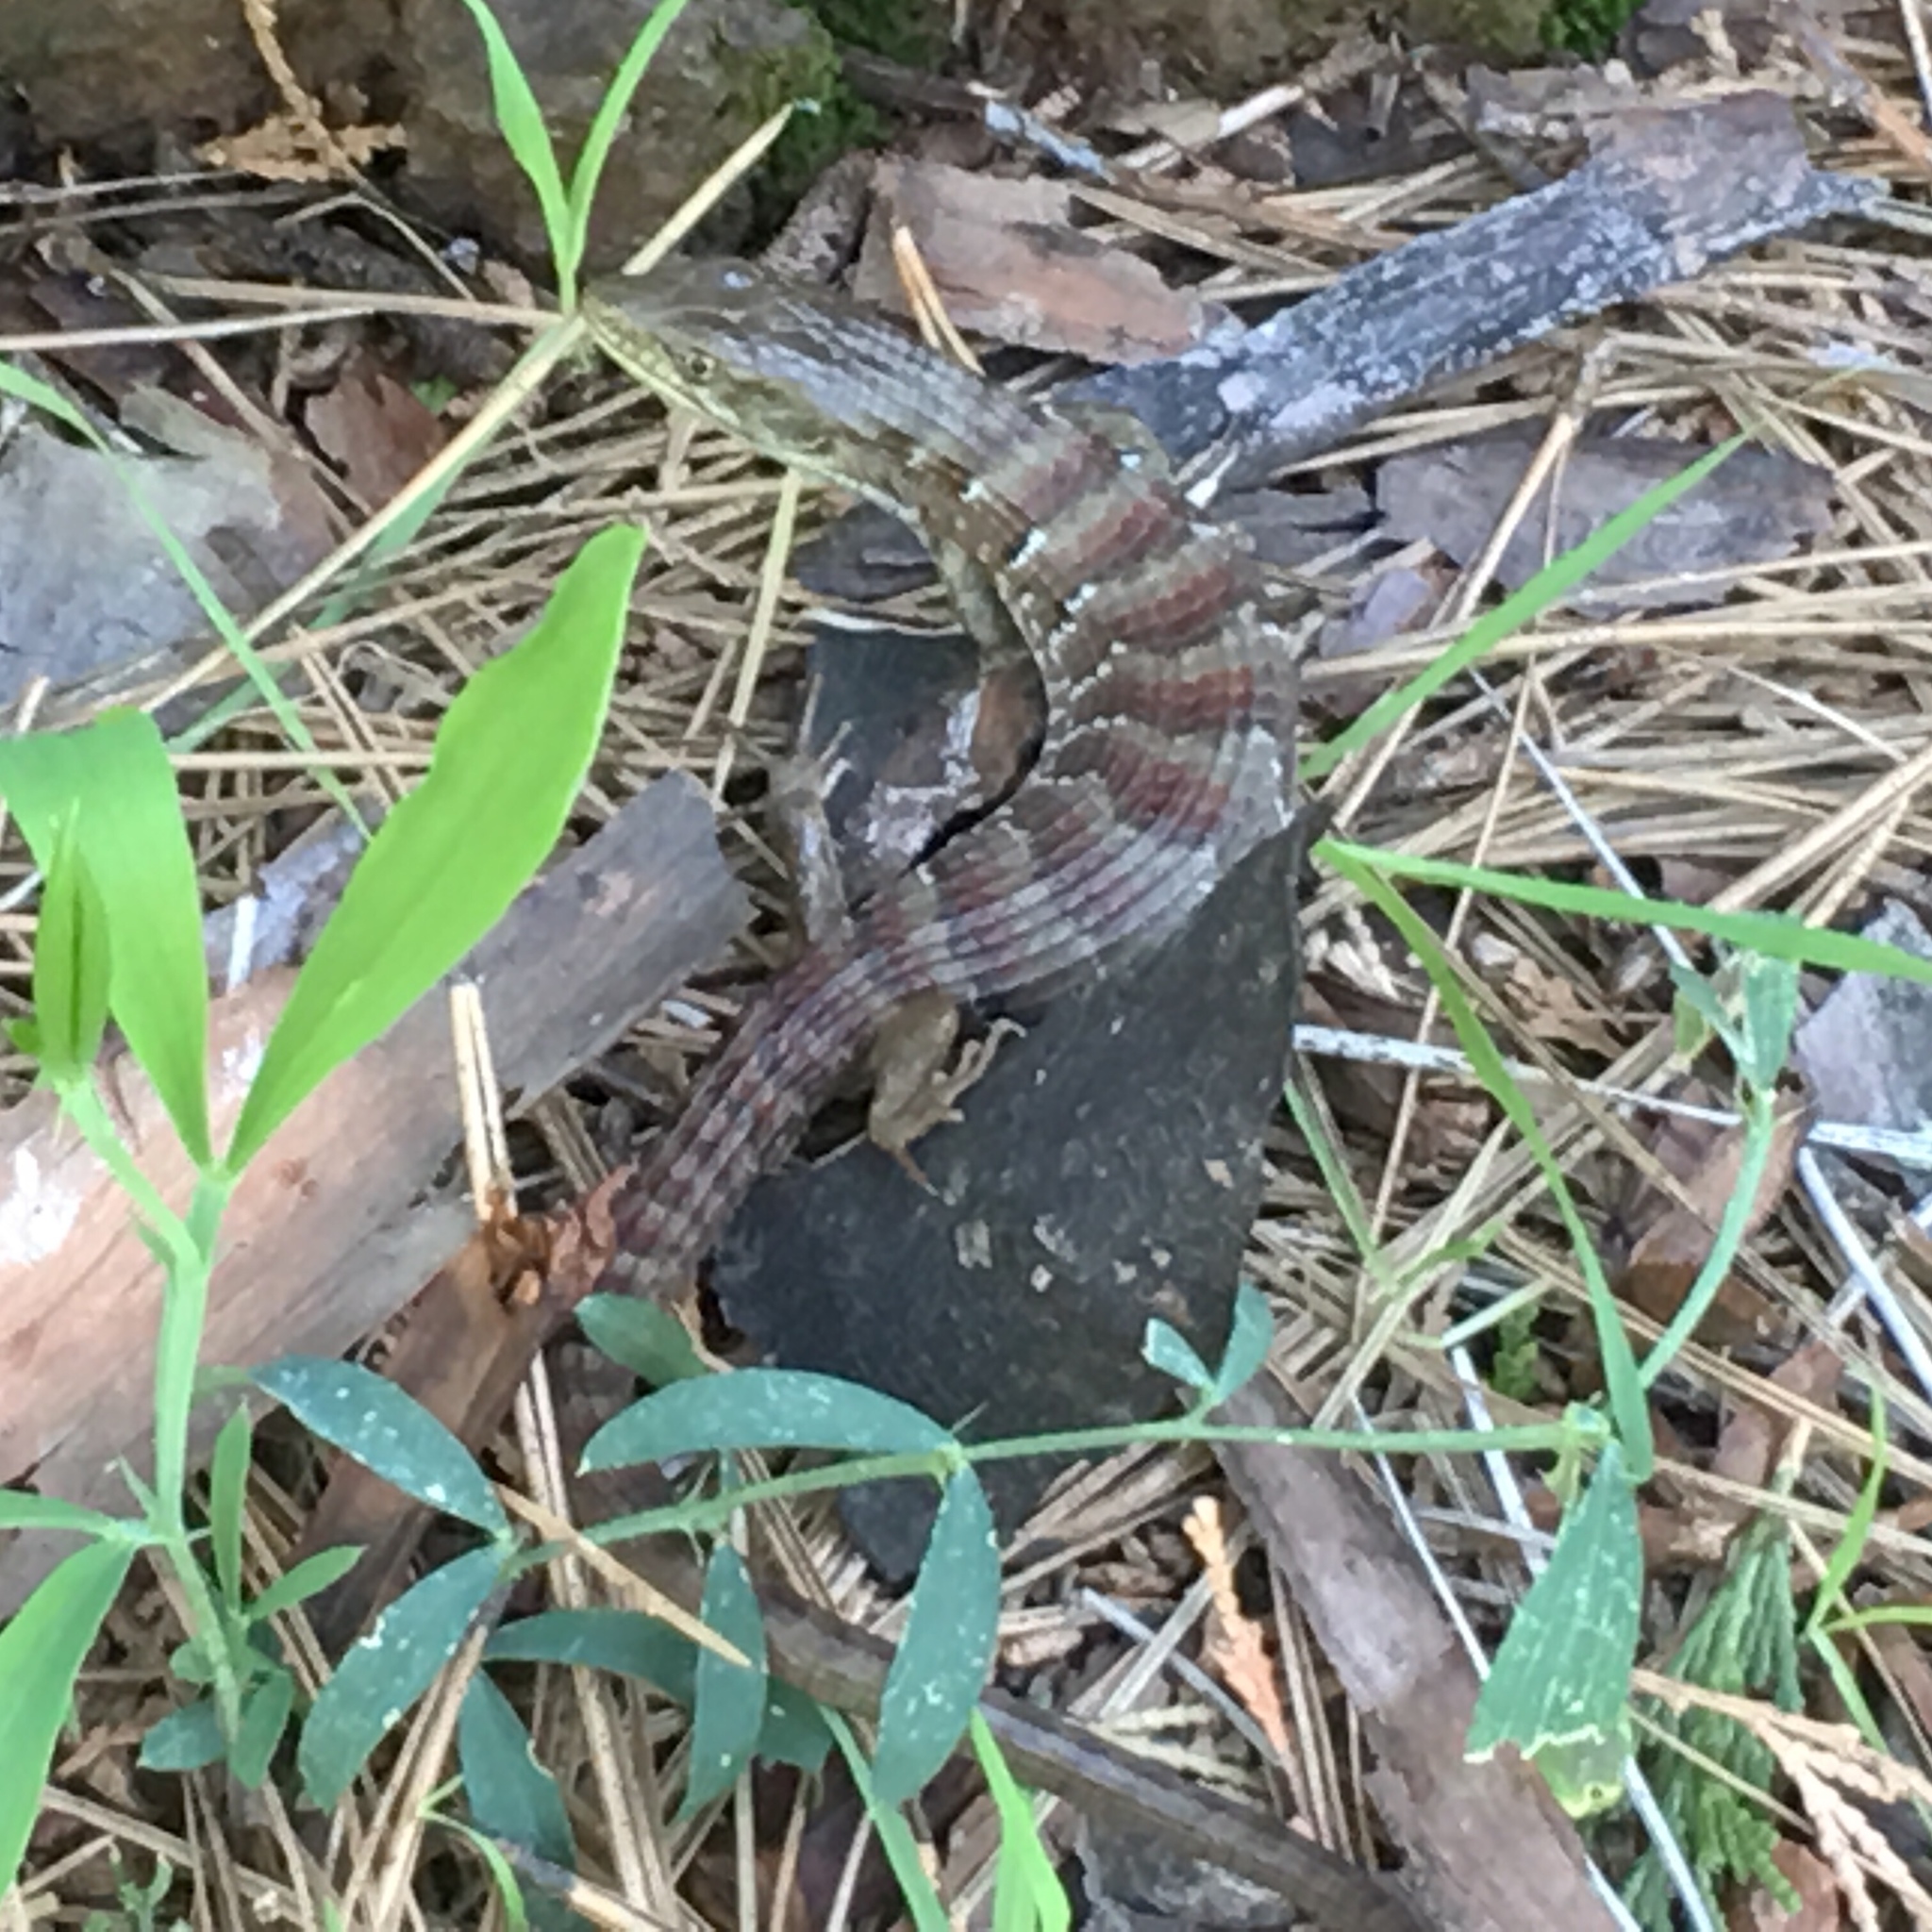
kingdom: Animalia
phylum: Chordata
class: Squamata
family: Anguidae
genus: Elgaria
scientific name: Elgaria multicarinata
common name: Southern alligator lizard
